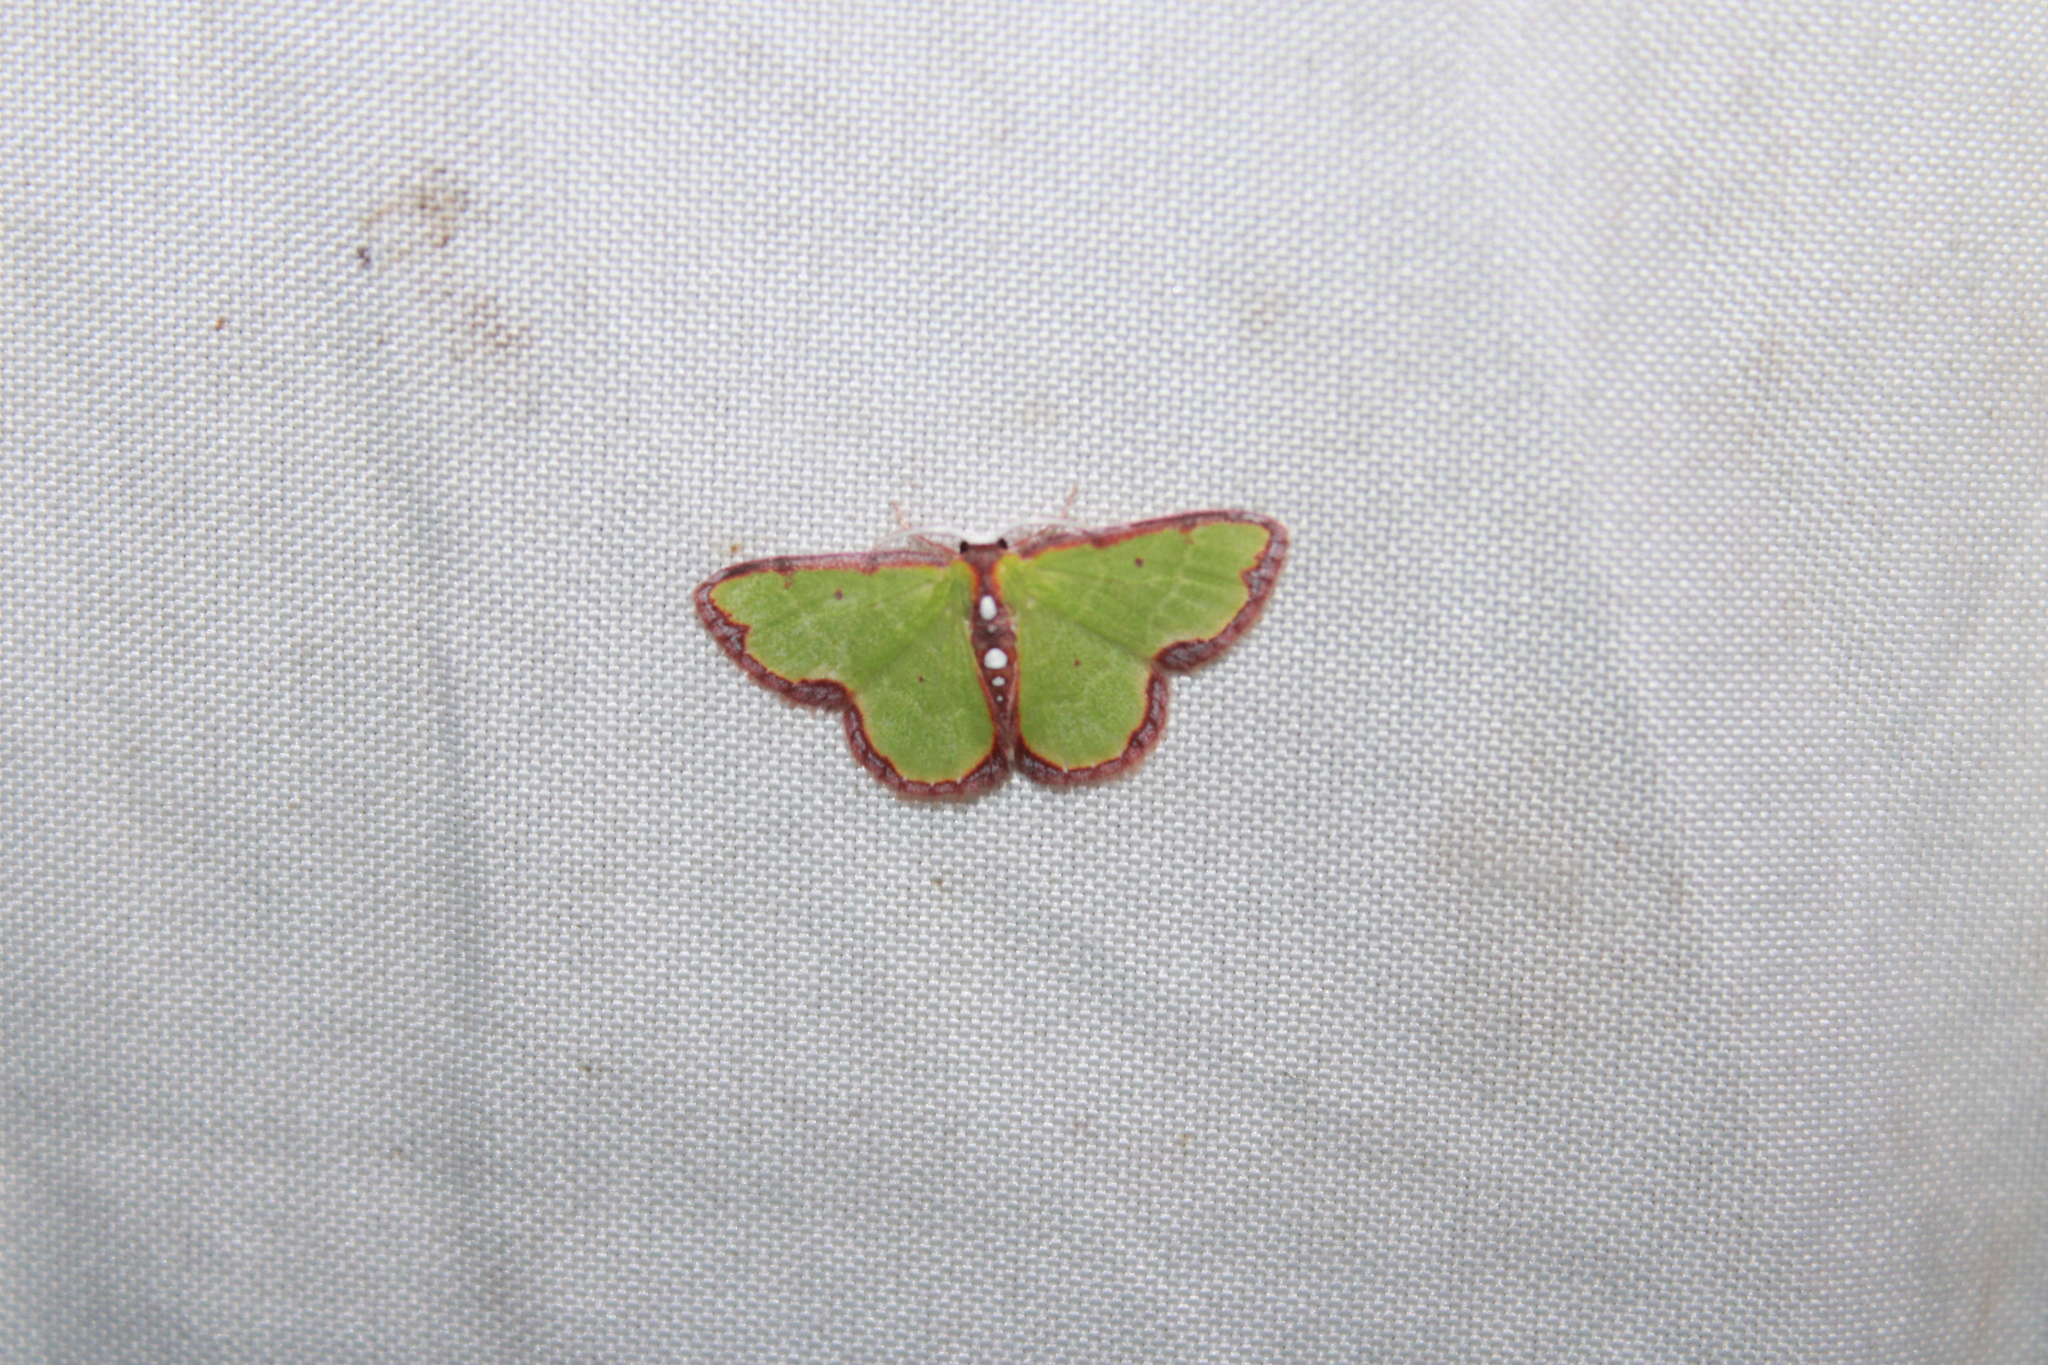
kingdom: Animalia
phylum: Arthropoda
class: Insecta
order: Lepidoptera
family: Geometridae
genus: Synchlora
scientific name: Synchlora cupedinaria
